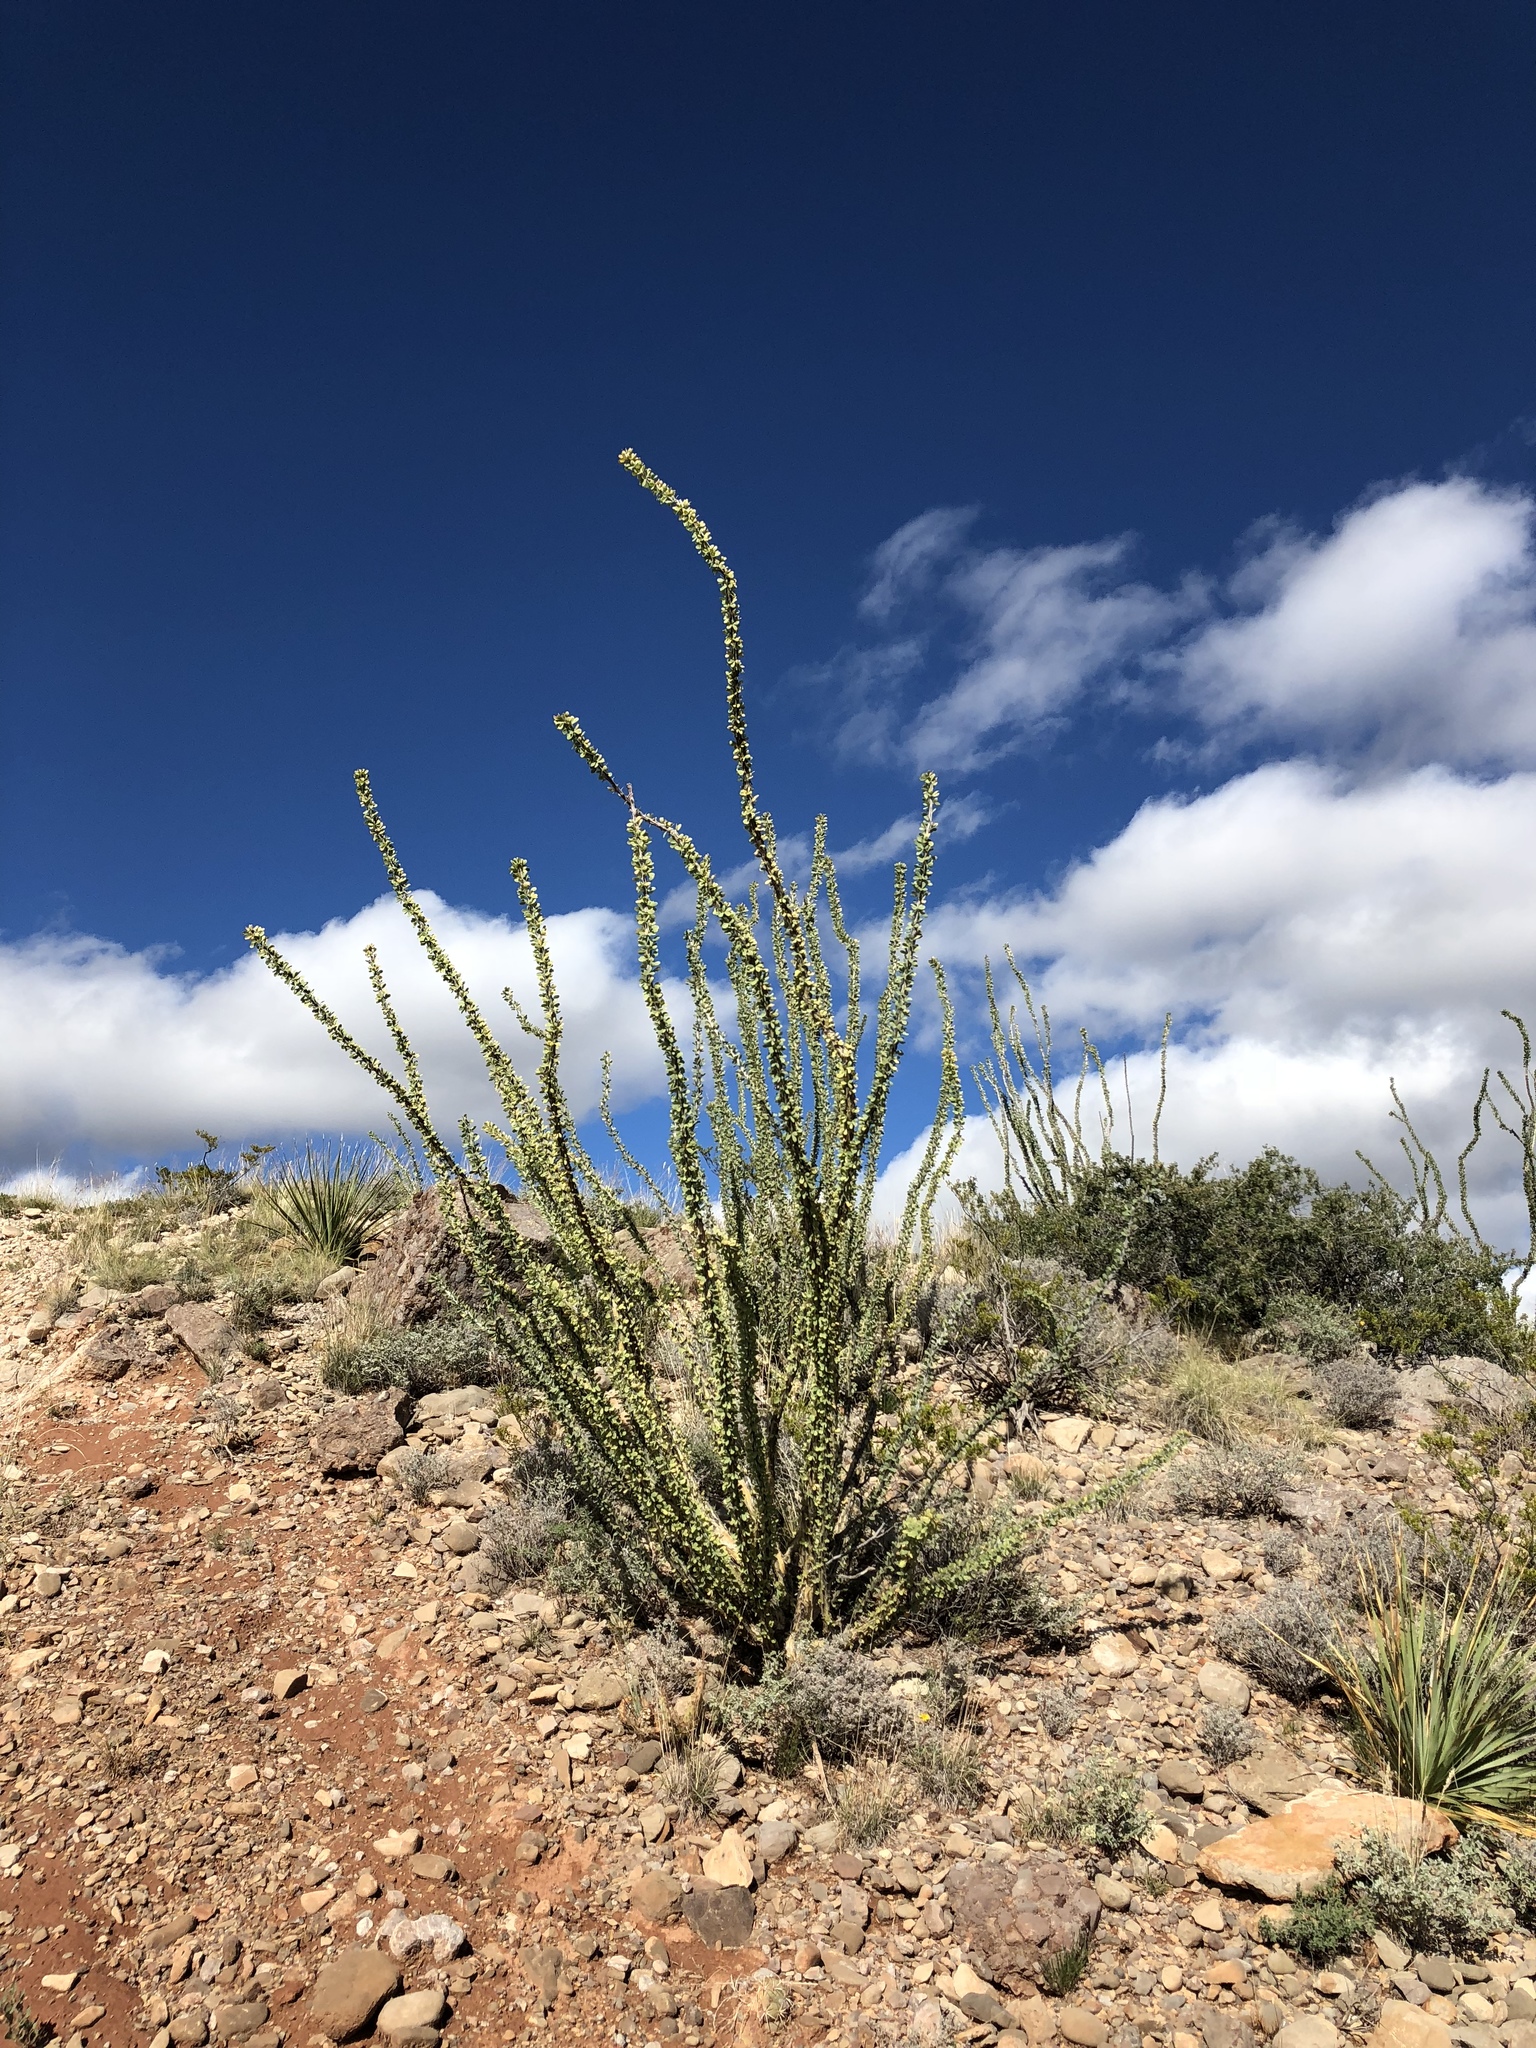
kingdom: Plantae
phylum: Tracheophyta
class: Magnoliopsida
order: Ericales
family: Fouquieriaceae
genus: Fouquieria
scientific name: Fouquieria splendens
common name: Vine-cactus
